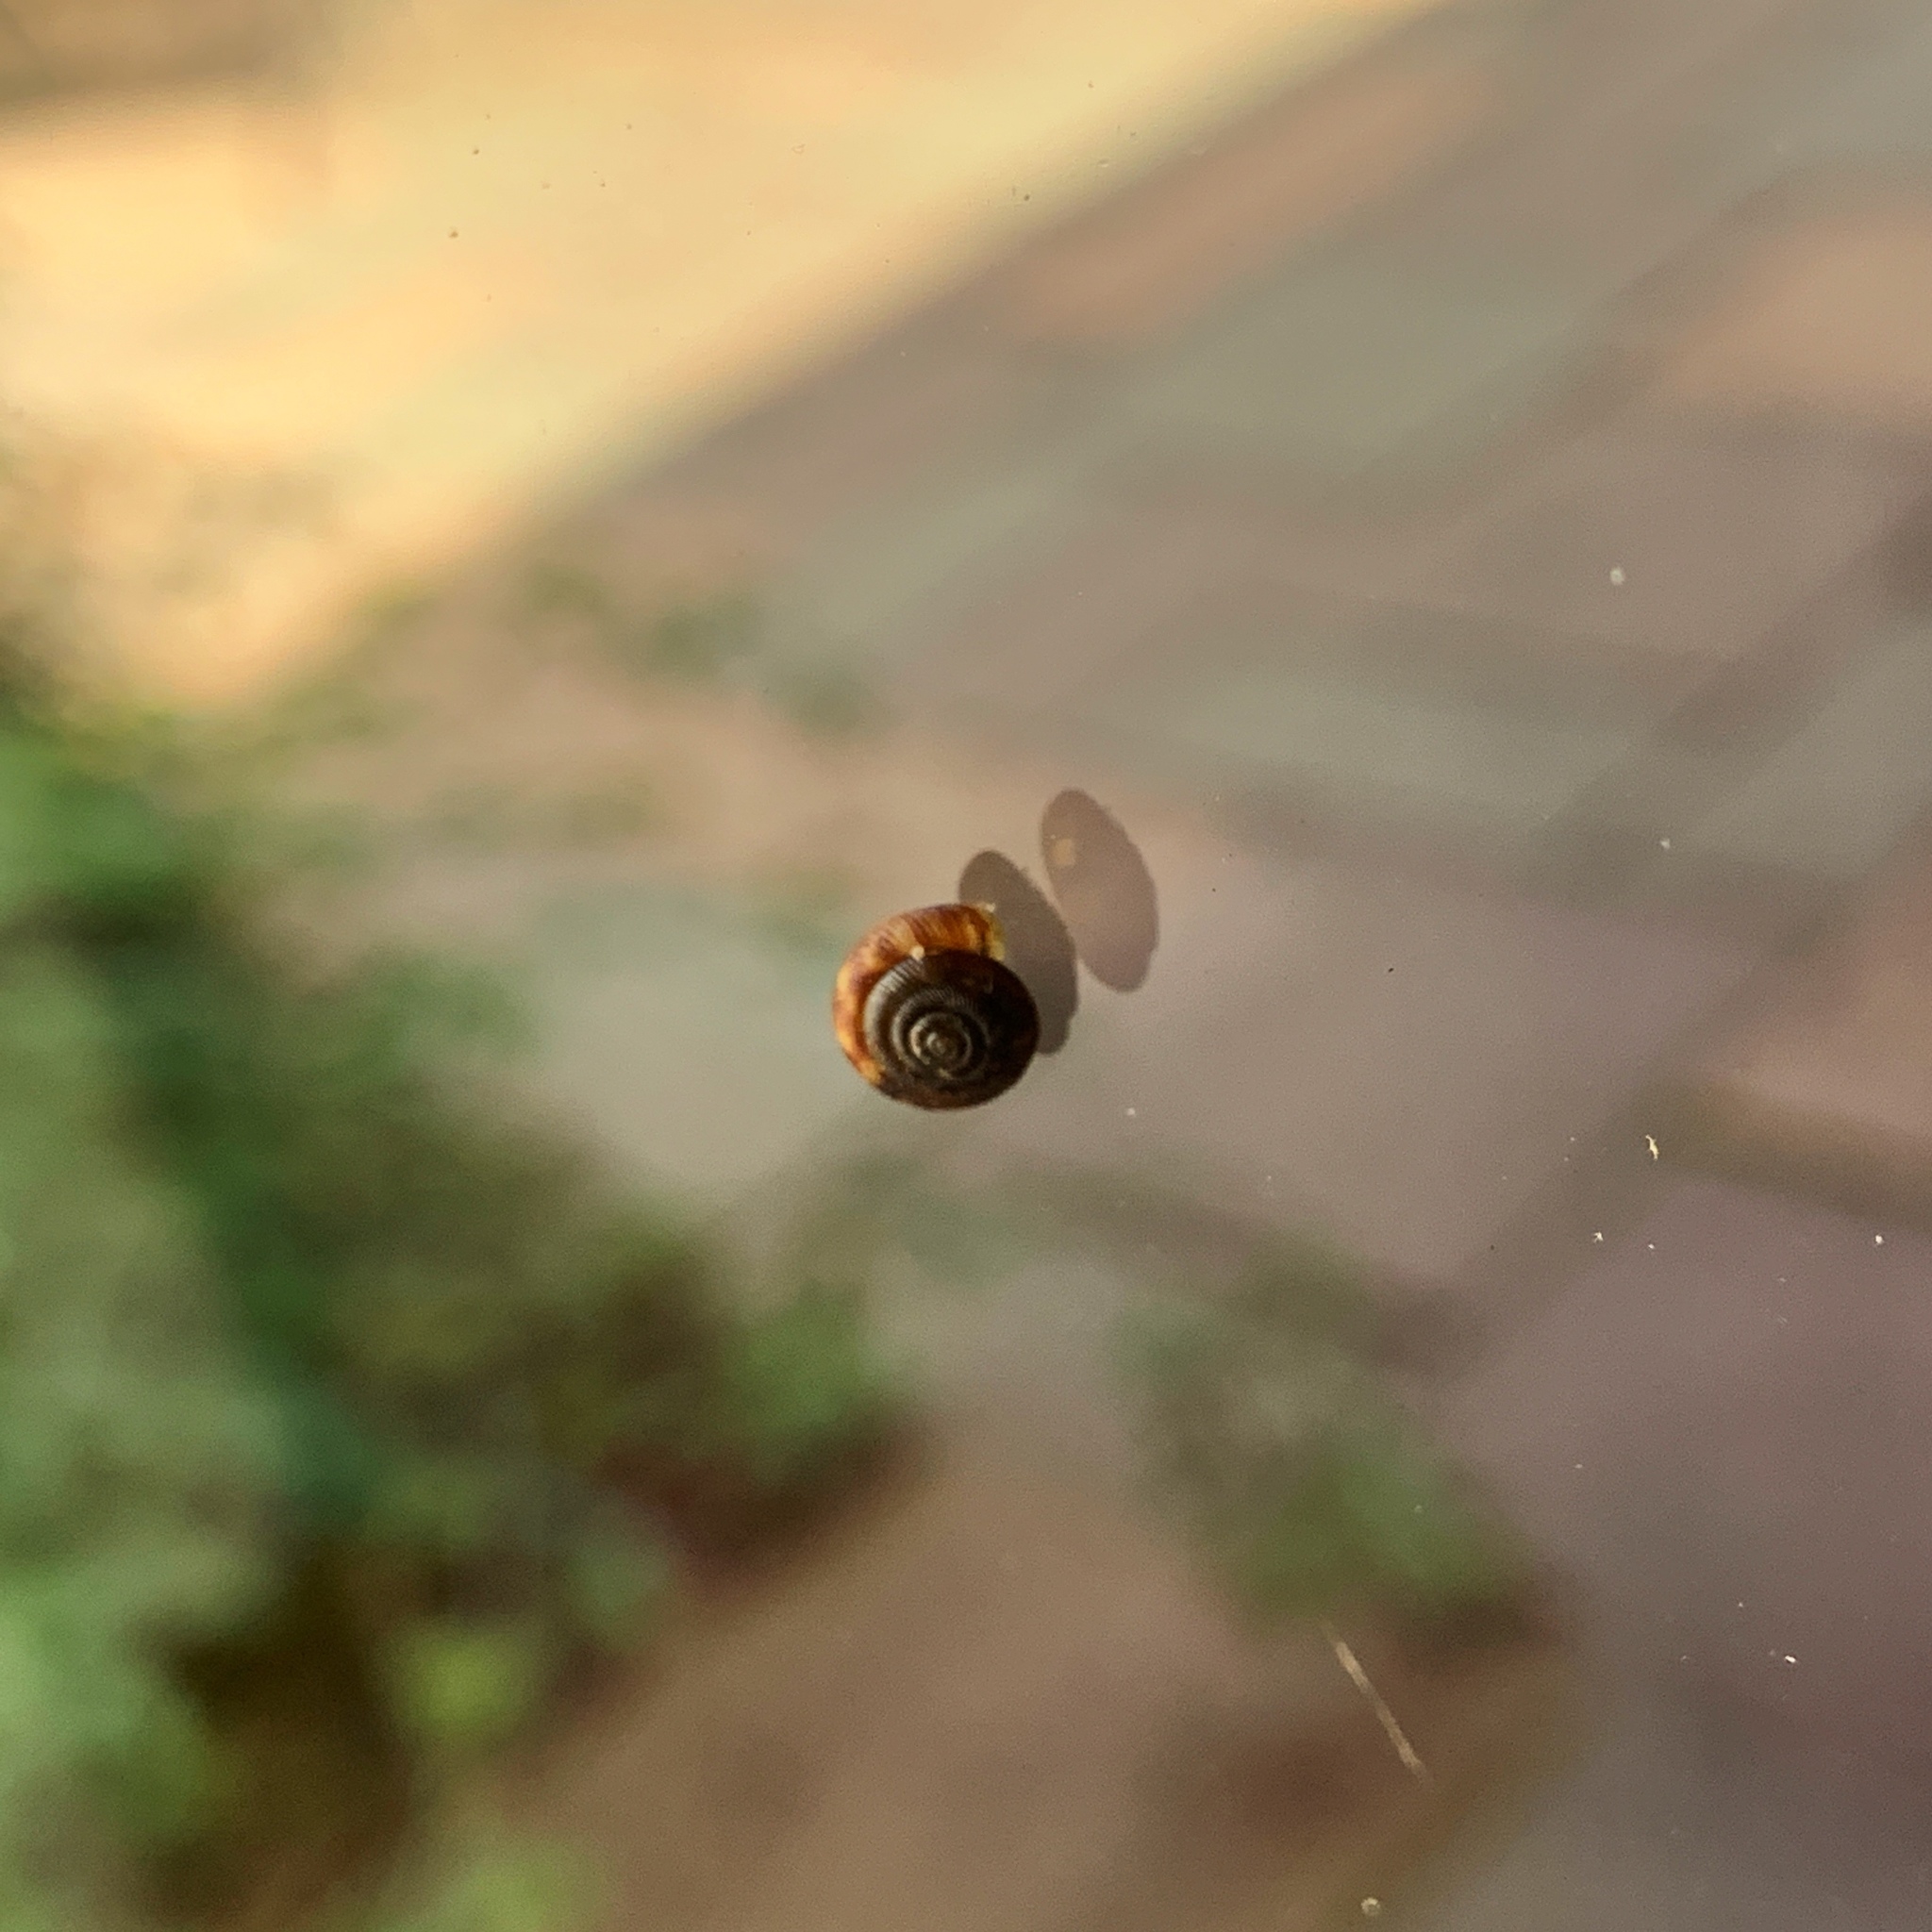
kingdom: Animalia
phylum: Mollusca
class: Gastropoda
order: Stylommatophora
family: Discidae
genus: Discus
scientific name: Discus rotundatus
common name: Rounded snail
